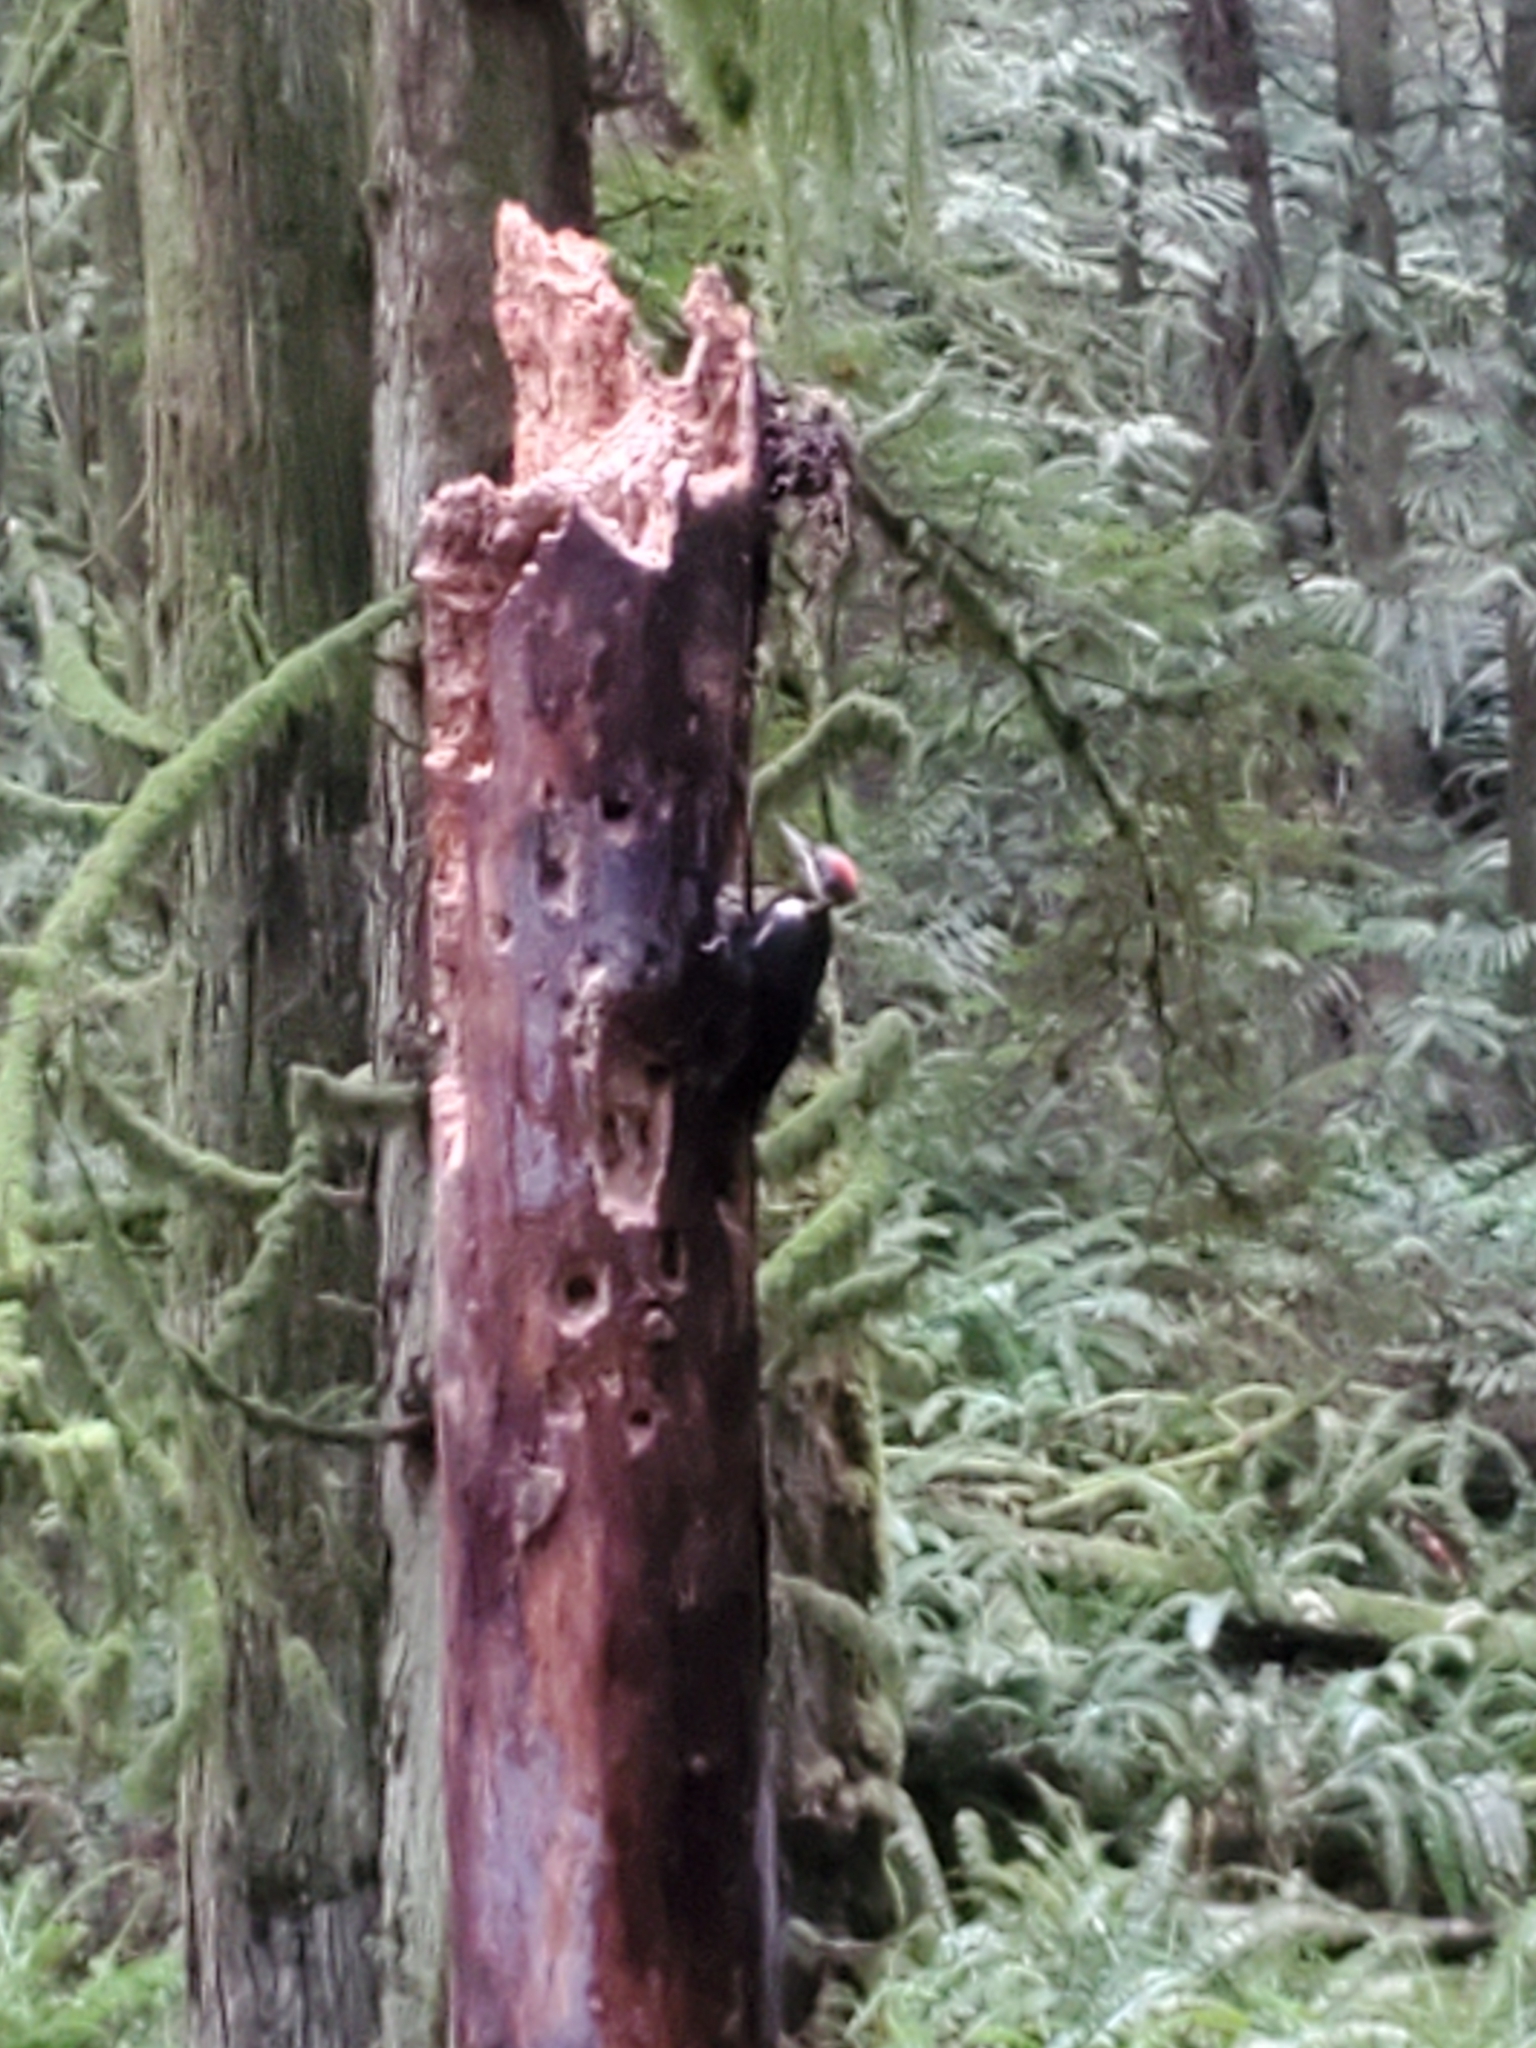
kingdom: Animalia
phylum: Chordata
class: Aves
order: Piciformes
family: Picidae
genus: Dryocopus
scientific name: Dryocopus pileatus
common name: Pileated woodpecker
